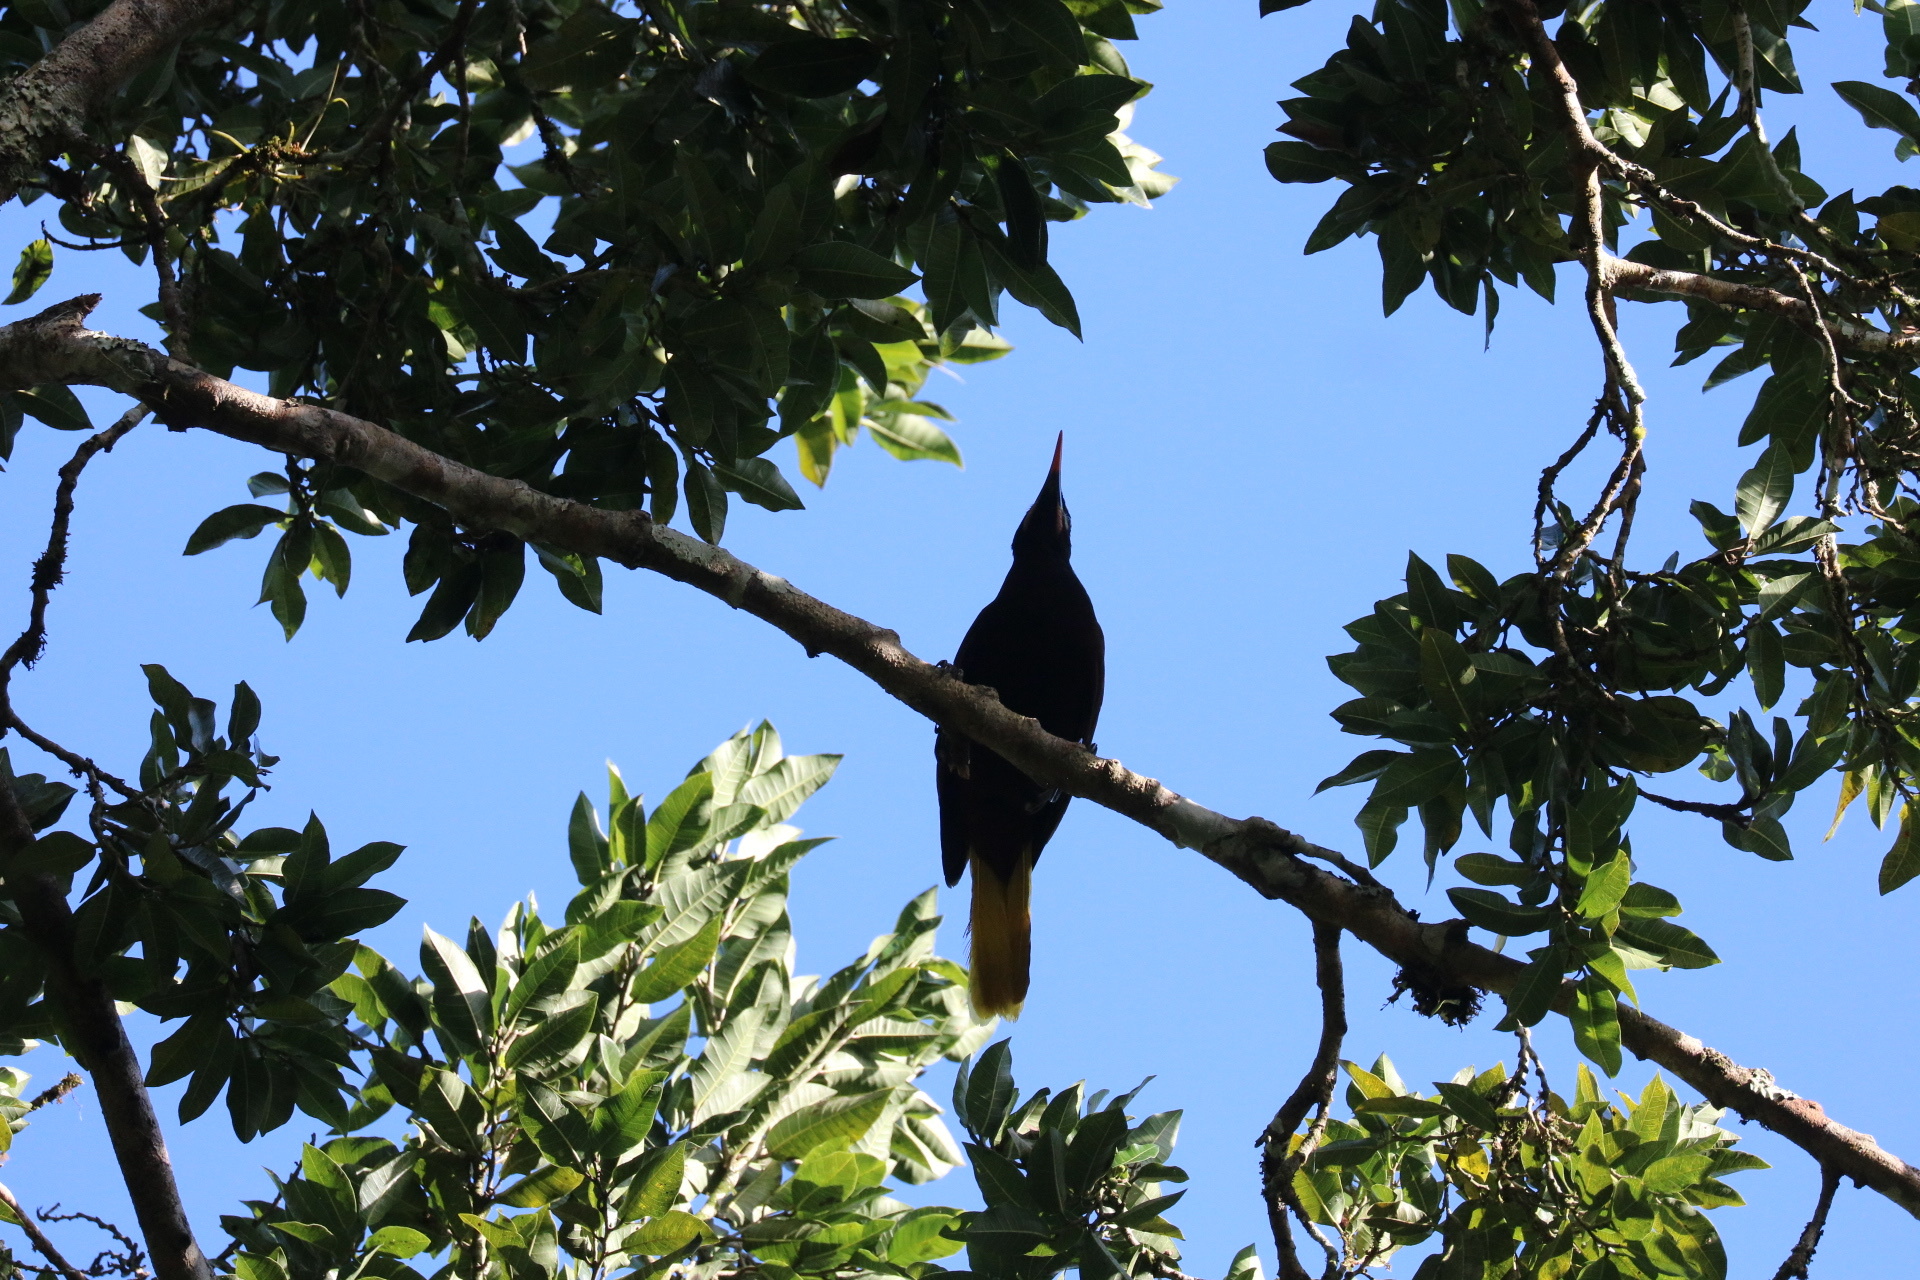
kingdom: Animalia
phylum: Chordata
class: Aves
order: Passeriformes
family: Icteridae
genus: Psarocolius
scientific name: Psarocolius montezuma
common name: Montezuma oropendola
